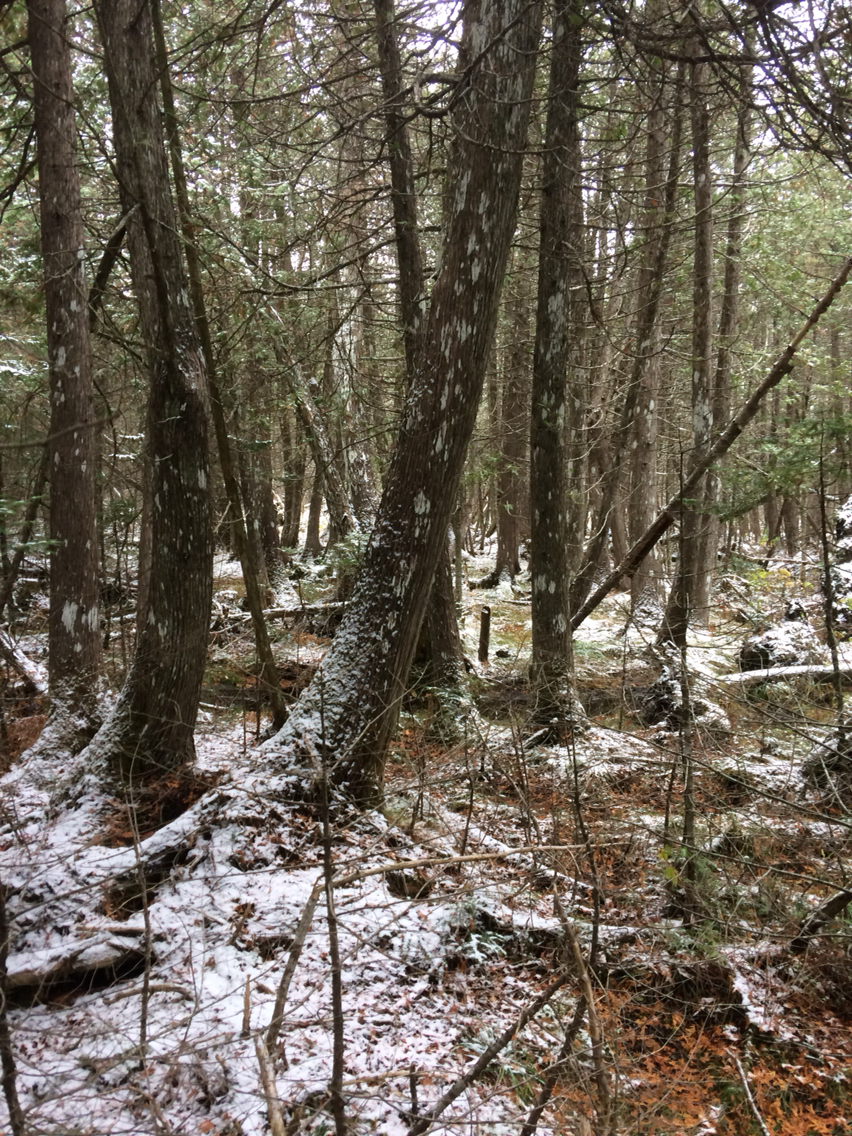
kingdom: Plantae
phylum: Tracheophyta
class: Pinopsida
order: Pinales
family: Cupressaceae
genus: Thuja
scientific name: Thuja occidentalis
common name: Northern white-cedar
